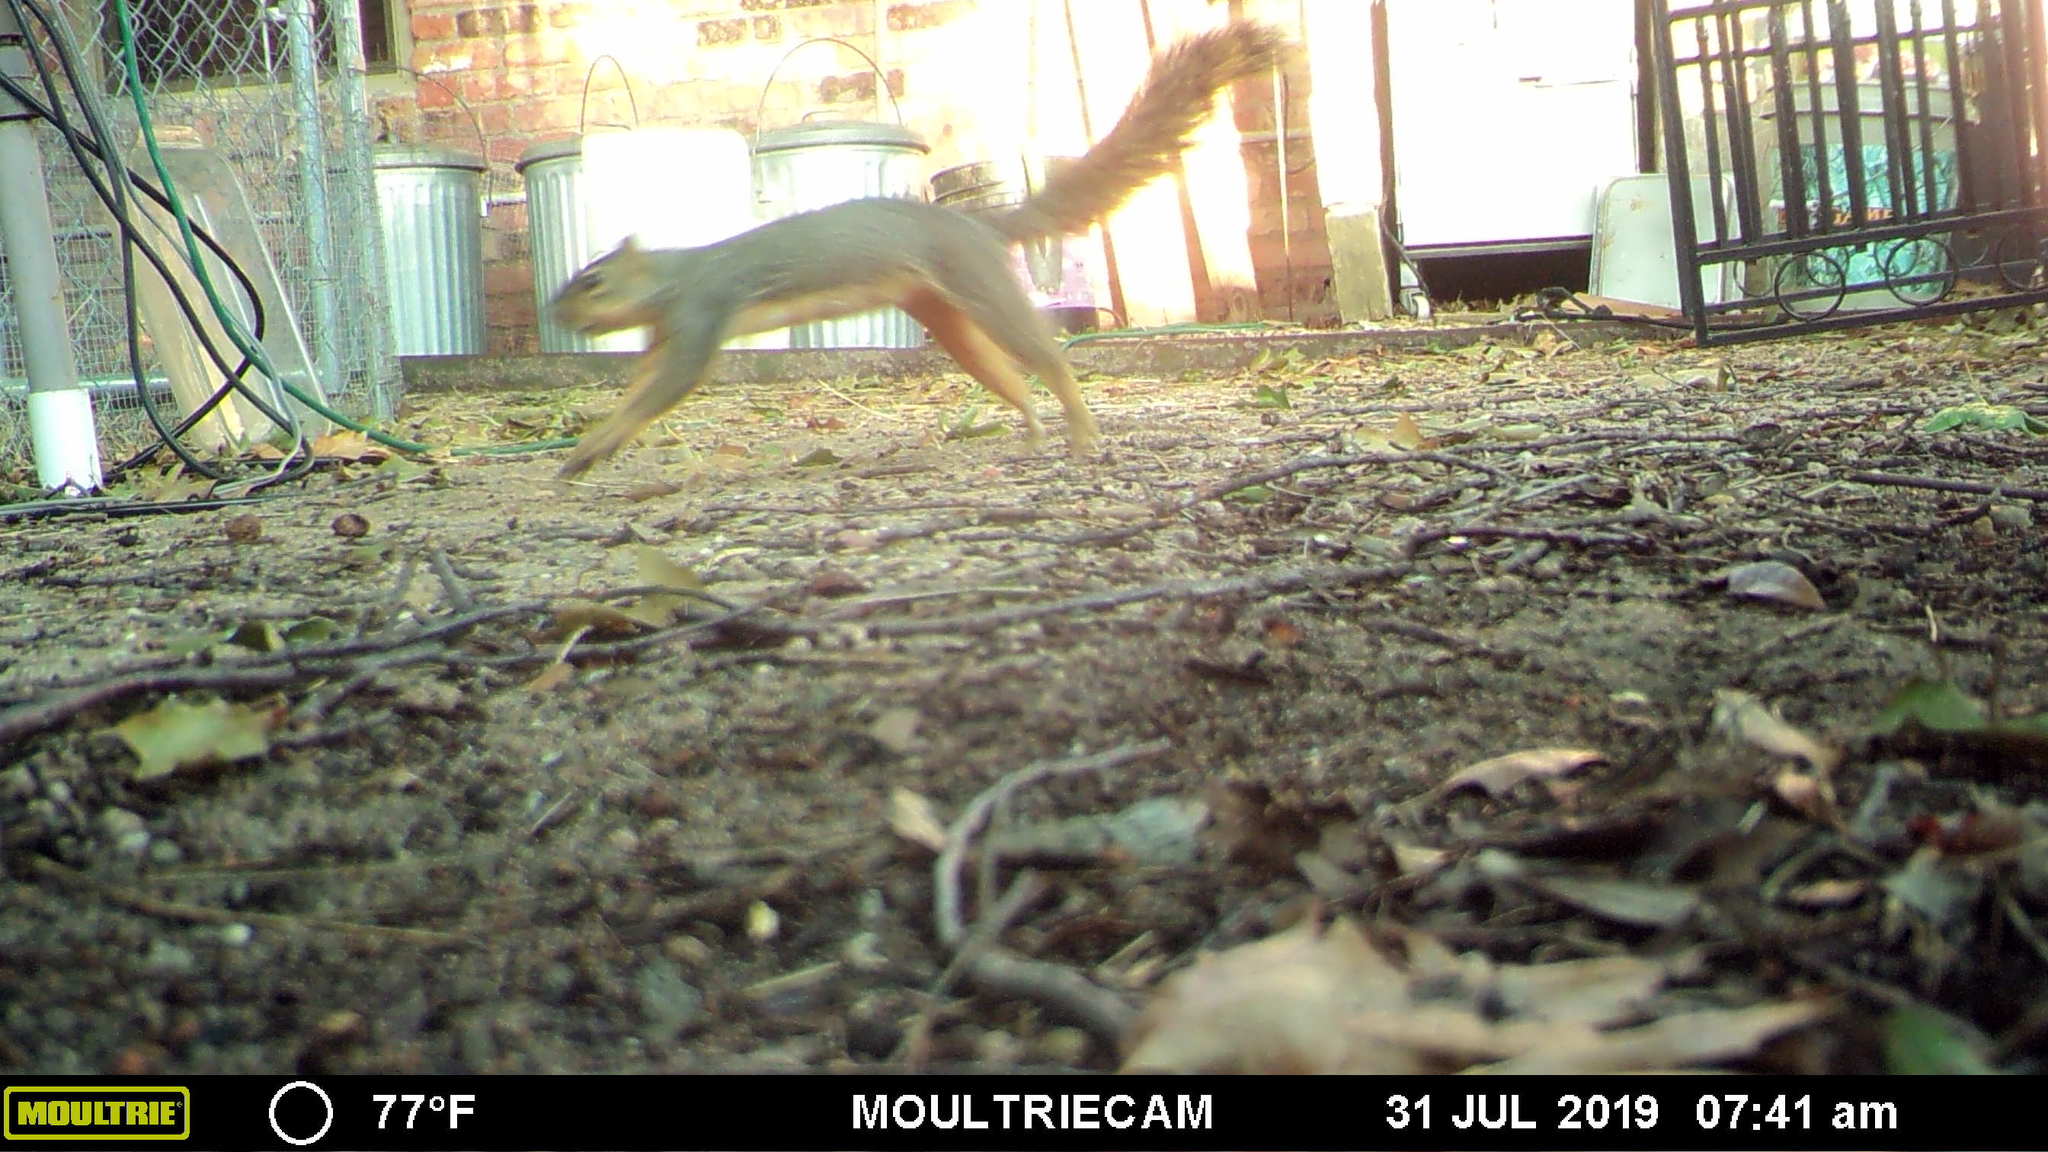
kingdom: Animalia
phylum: Chordata
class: Mammalia
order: Rodentia
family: Sciuridae
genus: Sciurus
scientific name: Sciurus niger
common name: Fox squirrel
